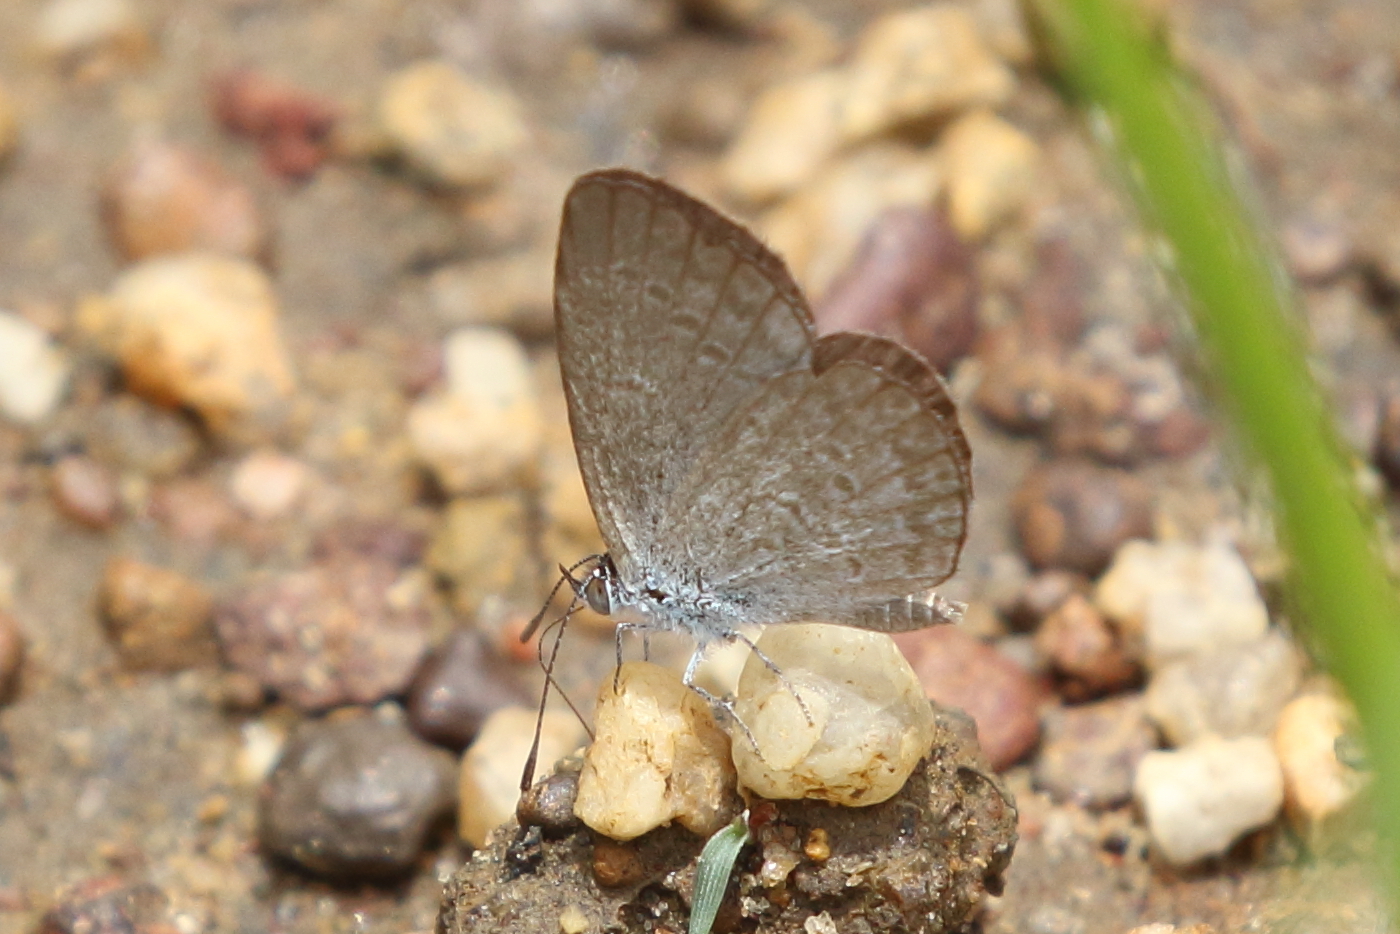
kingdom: Animalia
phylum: Arthropoda
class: Insecta
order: Lepidoptera
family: Lycaenidae
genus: Zizina
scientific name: Zizina otis
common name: Lesser grass blue
